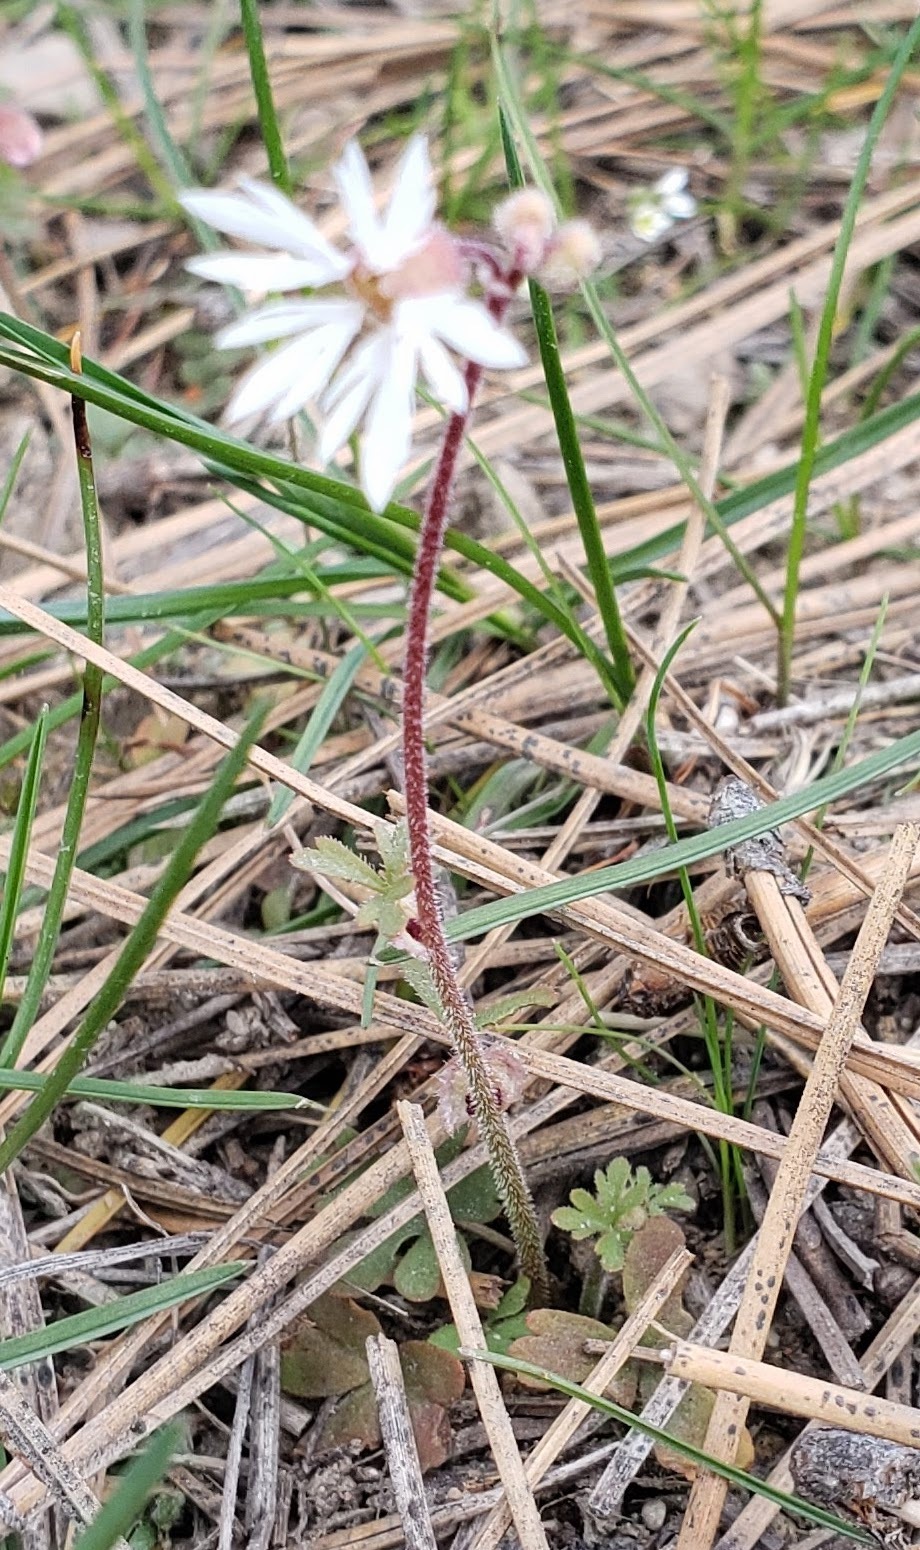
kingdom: Plantae
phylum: Tracheophyta
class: Magnoliopsida
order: Saxifragales
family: Saxifragaceae
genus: Lithophragma
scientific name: Lithophragma glabrum
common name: Bulbous prairie-star
